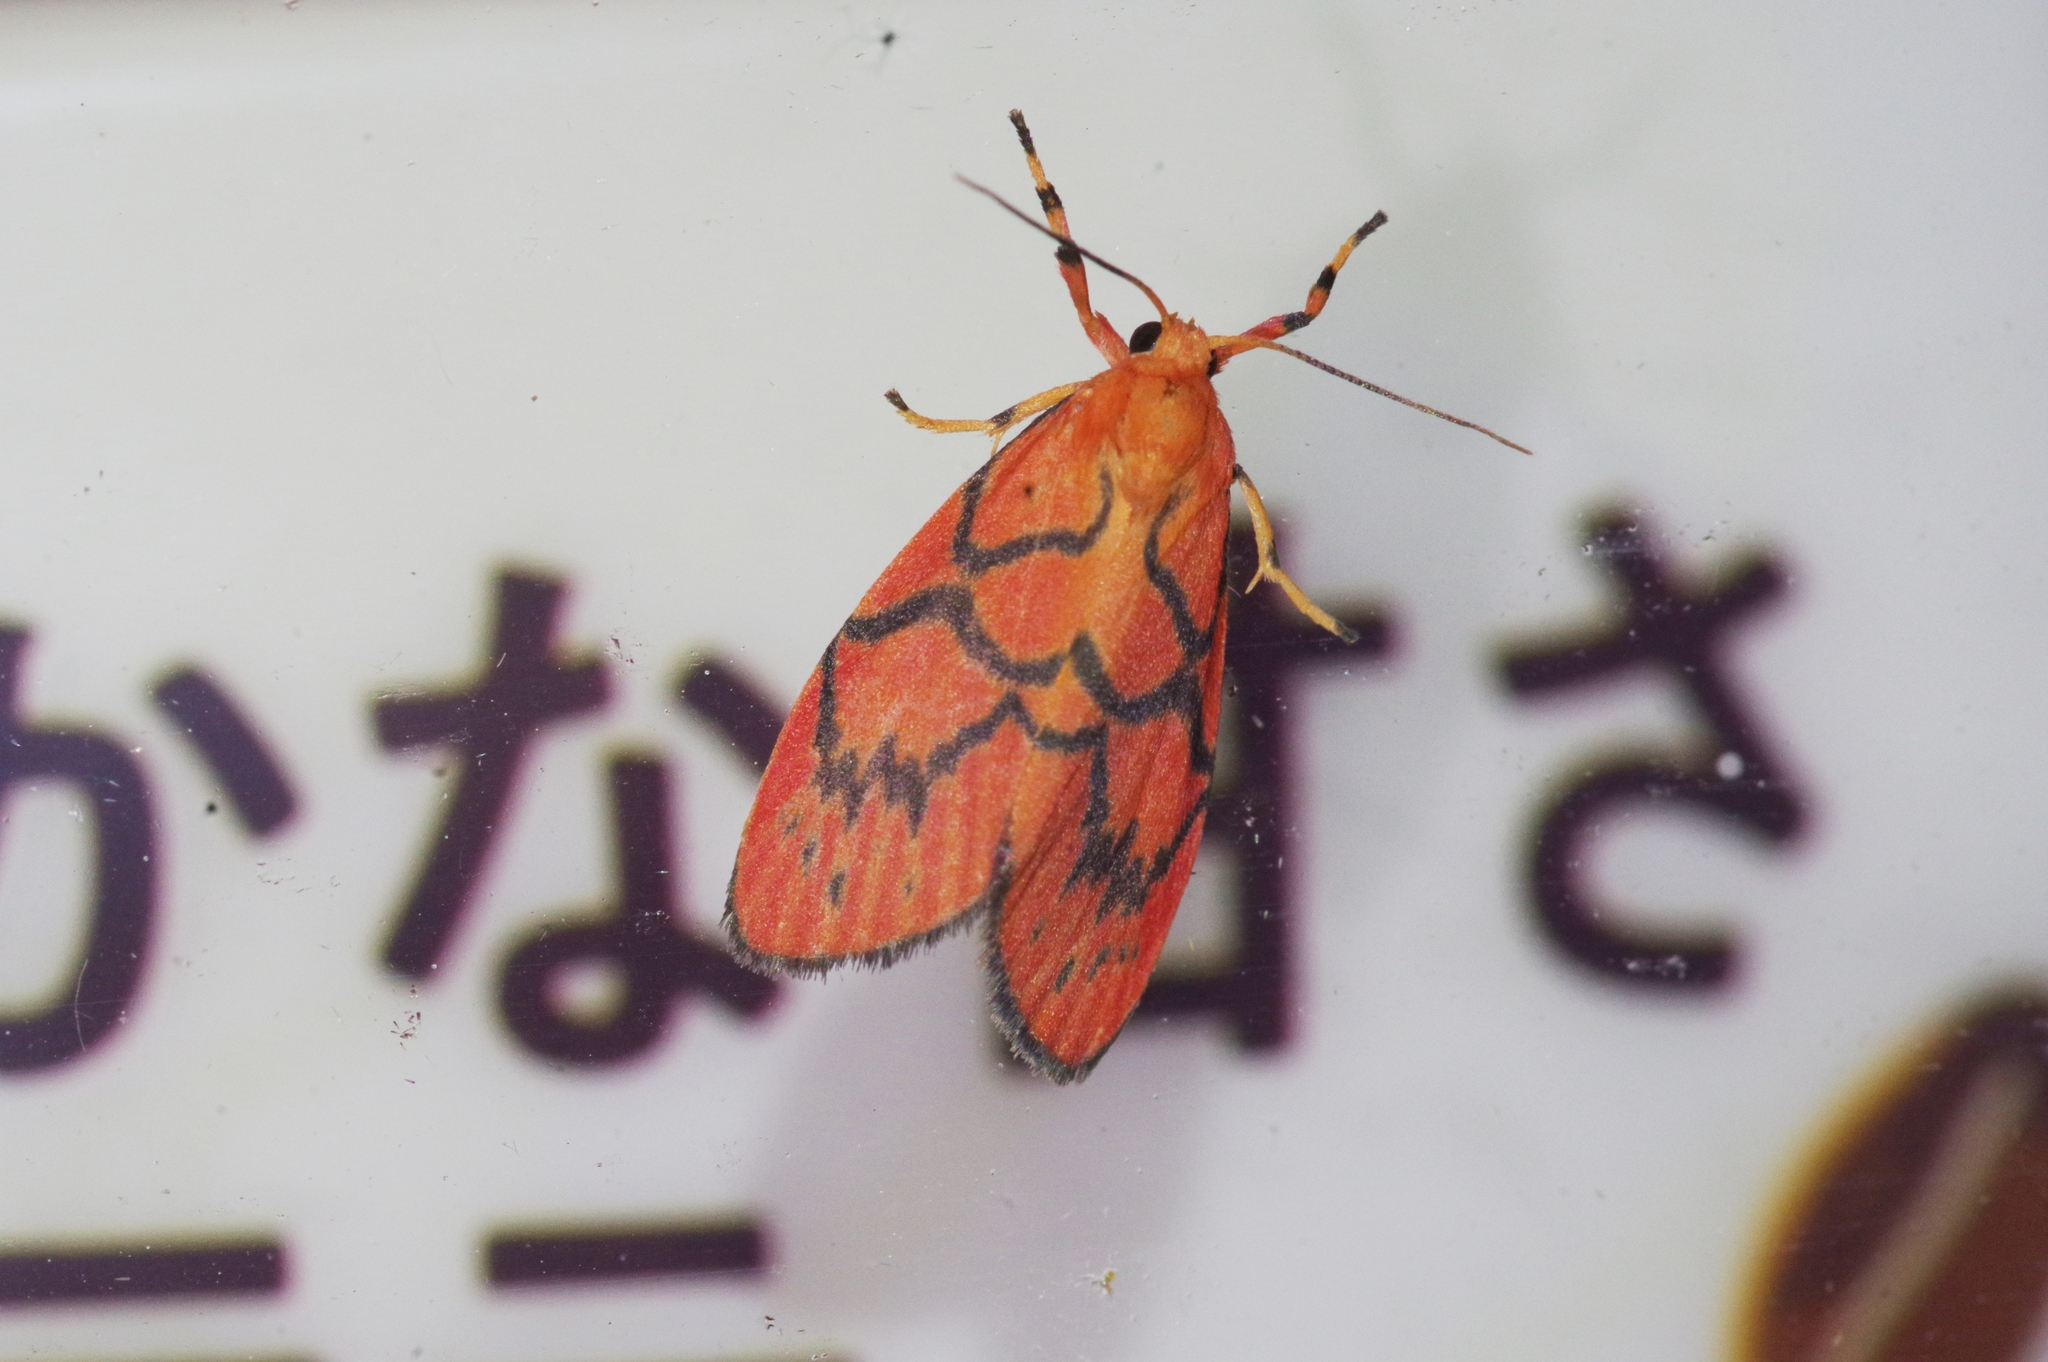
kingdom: Animalia
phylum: Arthropoda
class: Insecta
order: Lepidoptera
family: Erebidae
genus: Aberrasine
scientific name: Aberrasine aberrans
